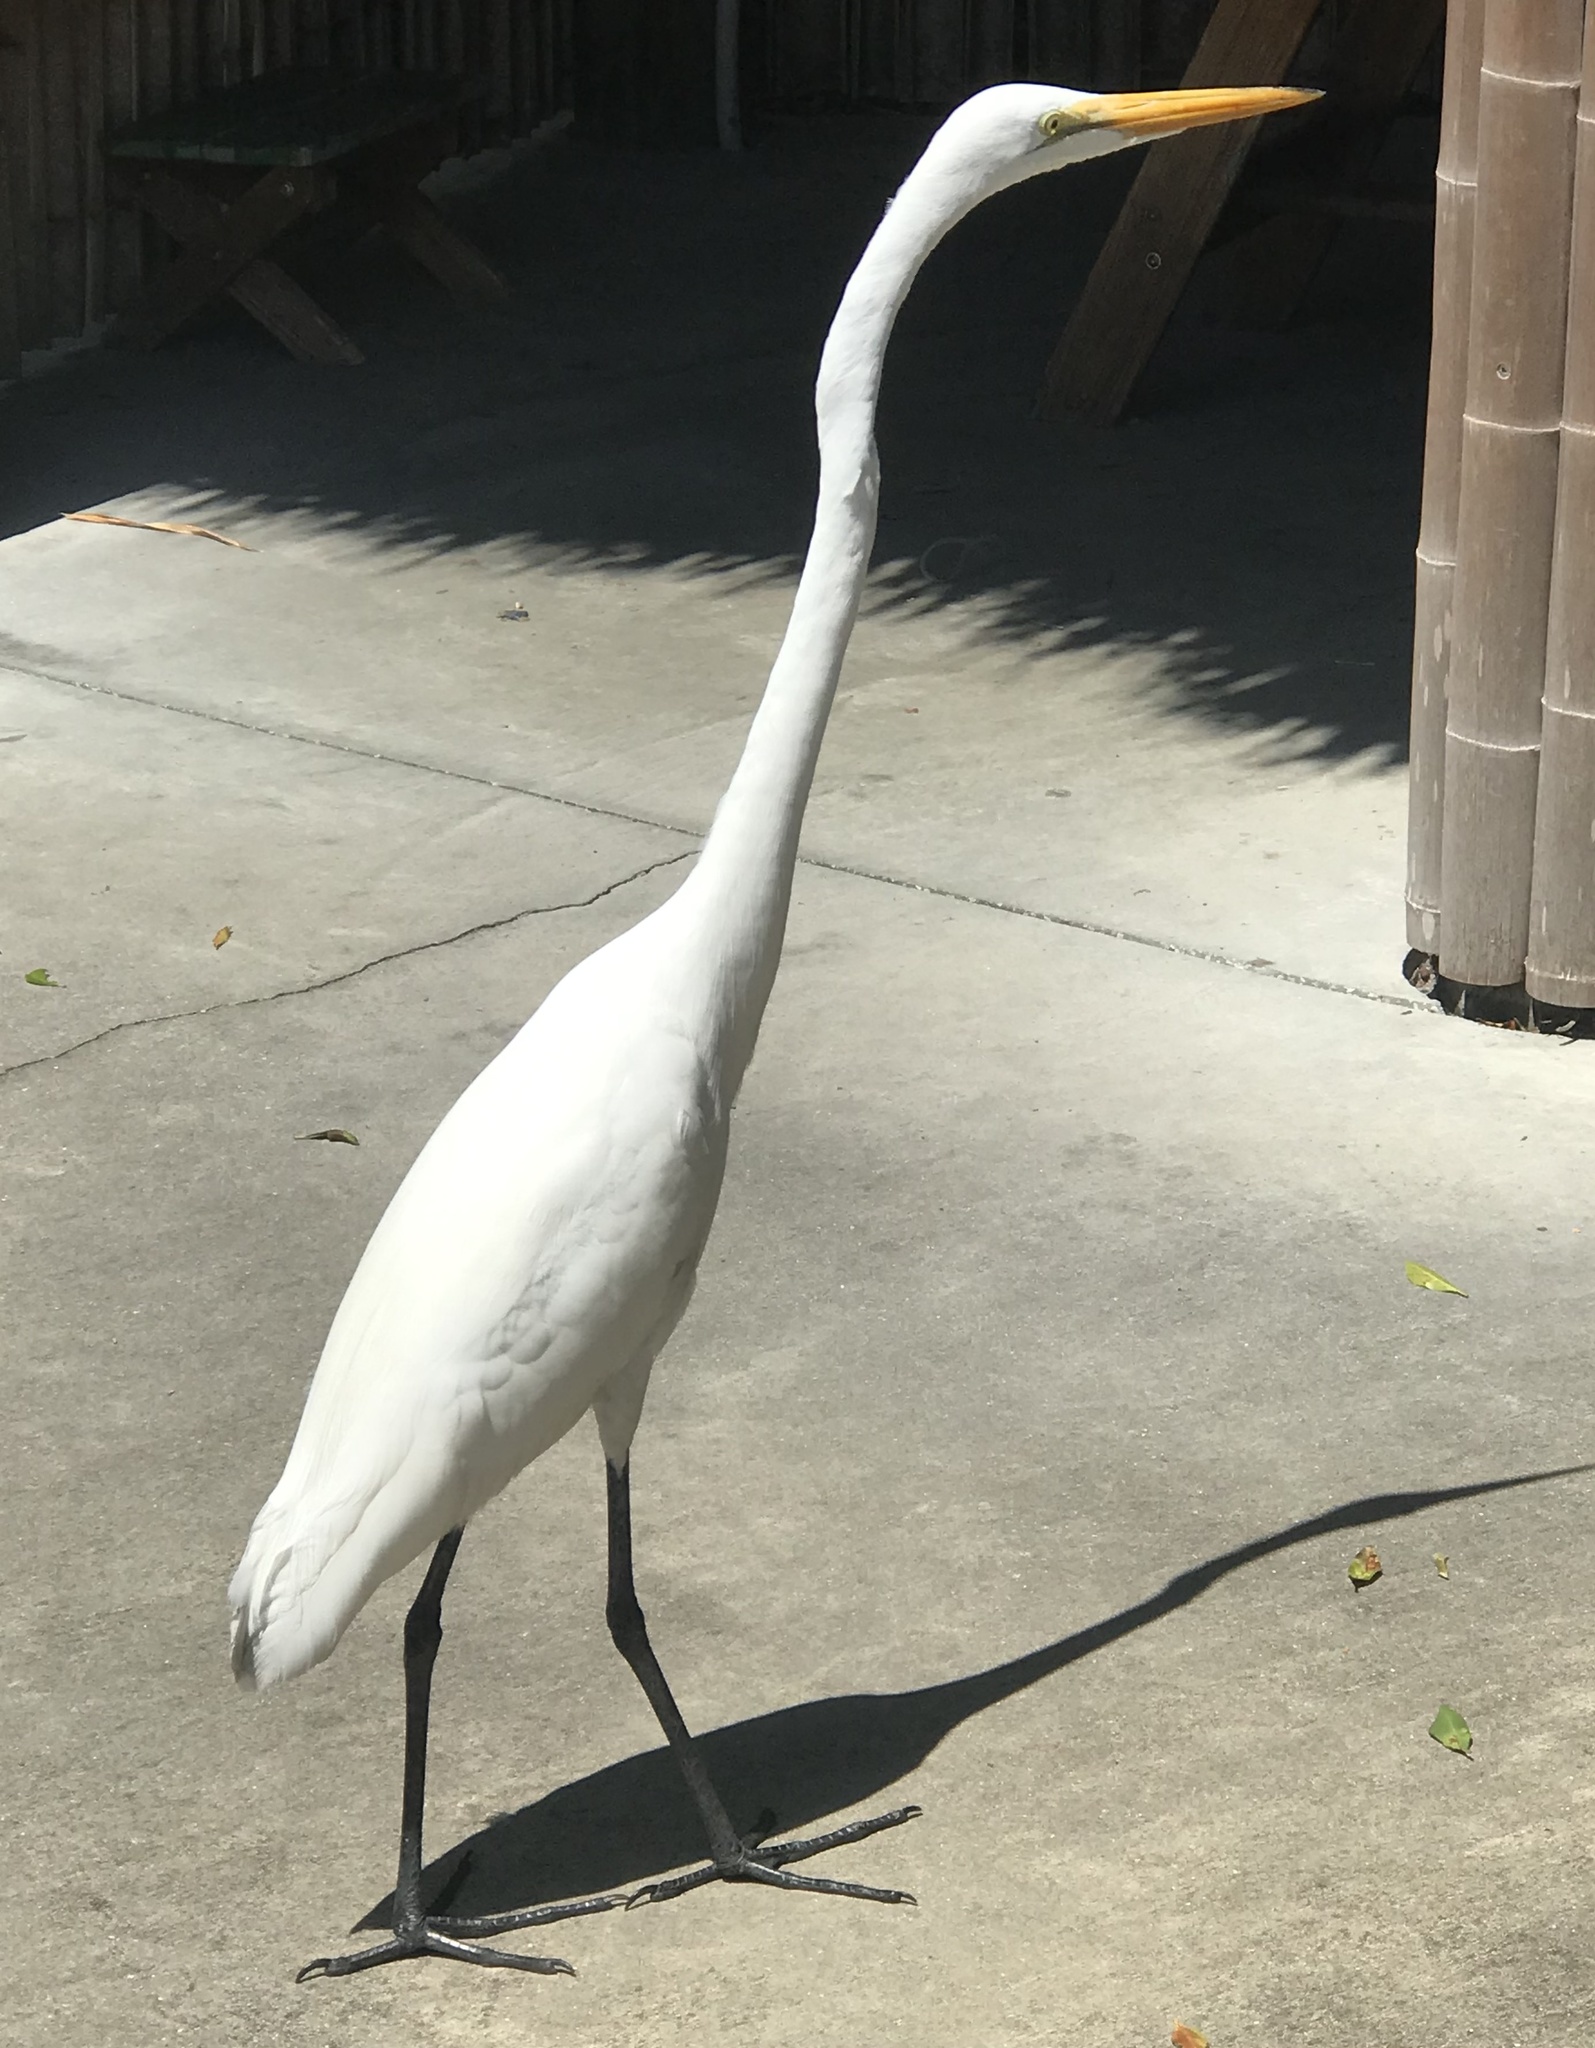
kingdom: Animalia
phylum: Chordata
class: Aves
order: Pelecaniformes
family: Ardeidae
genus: Ardea
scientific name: Ardea alba
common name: Great egret
